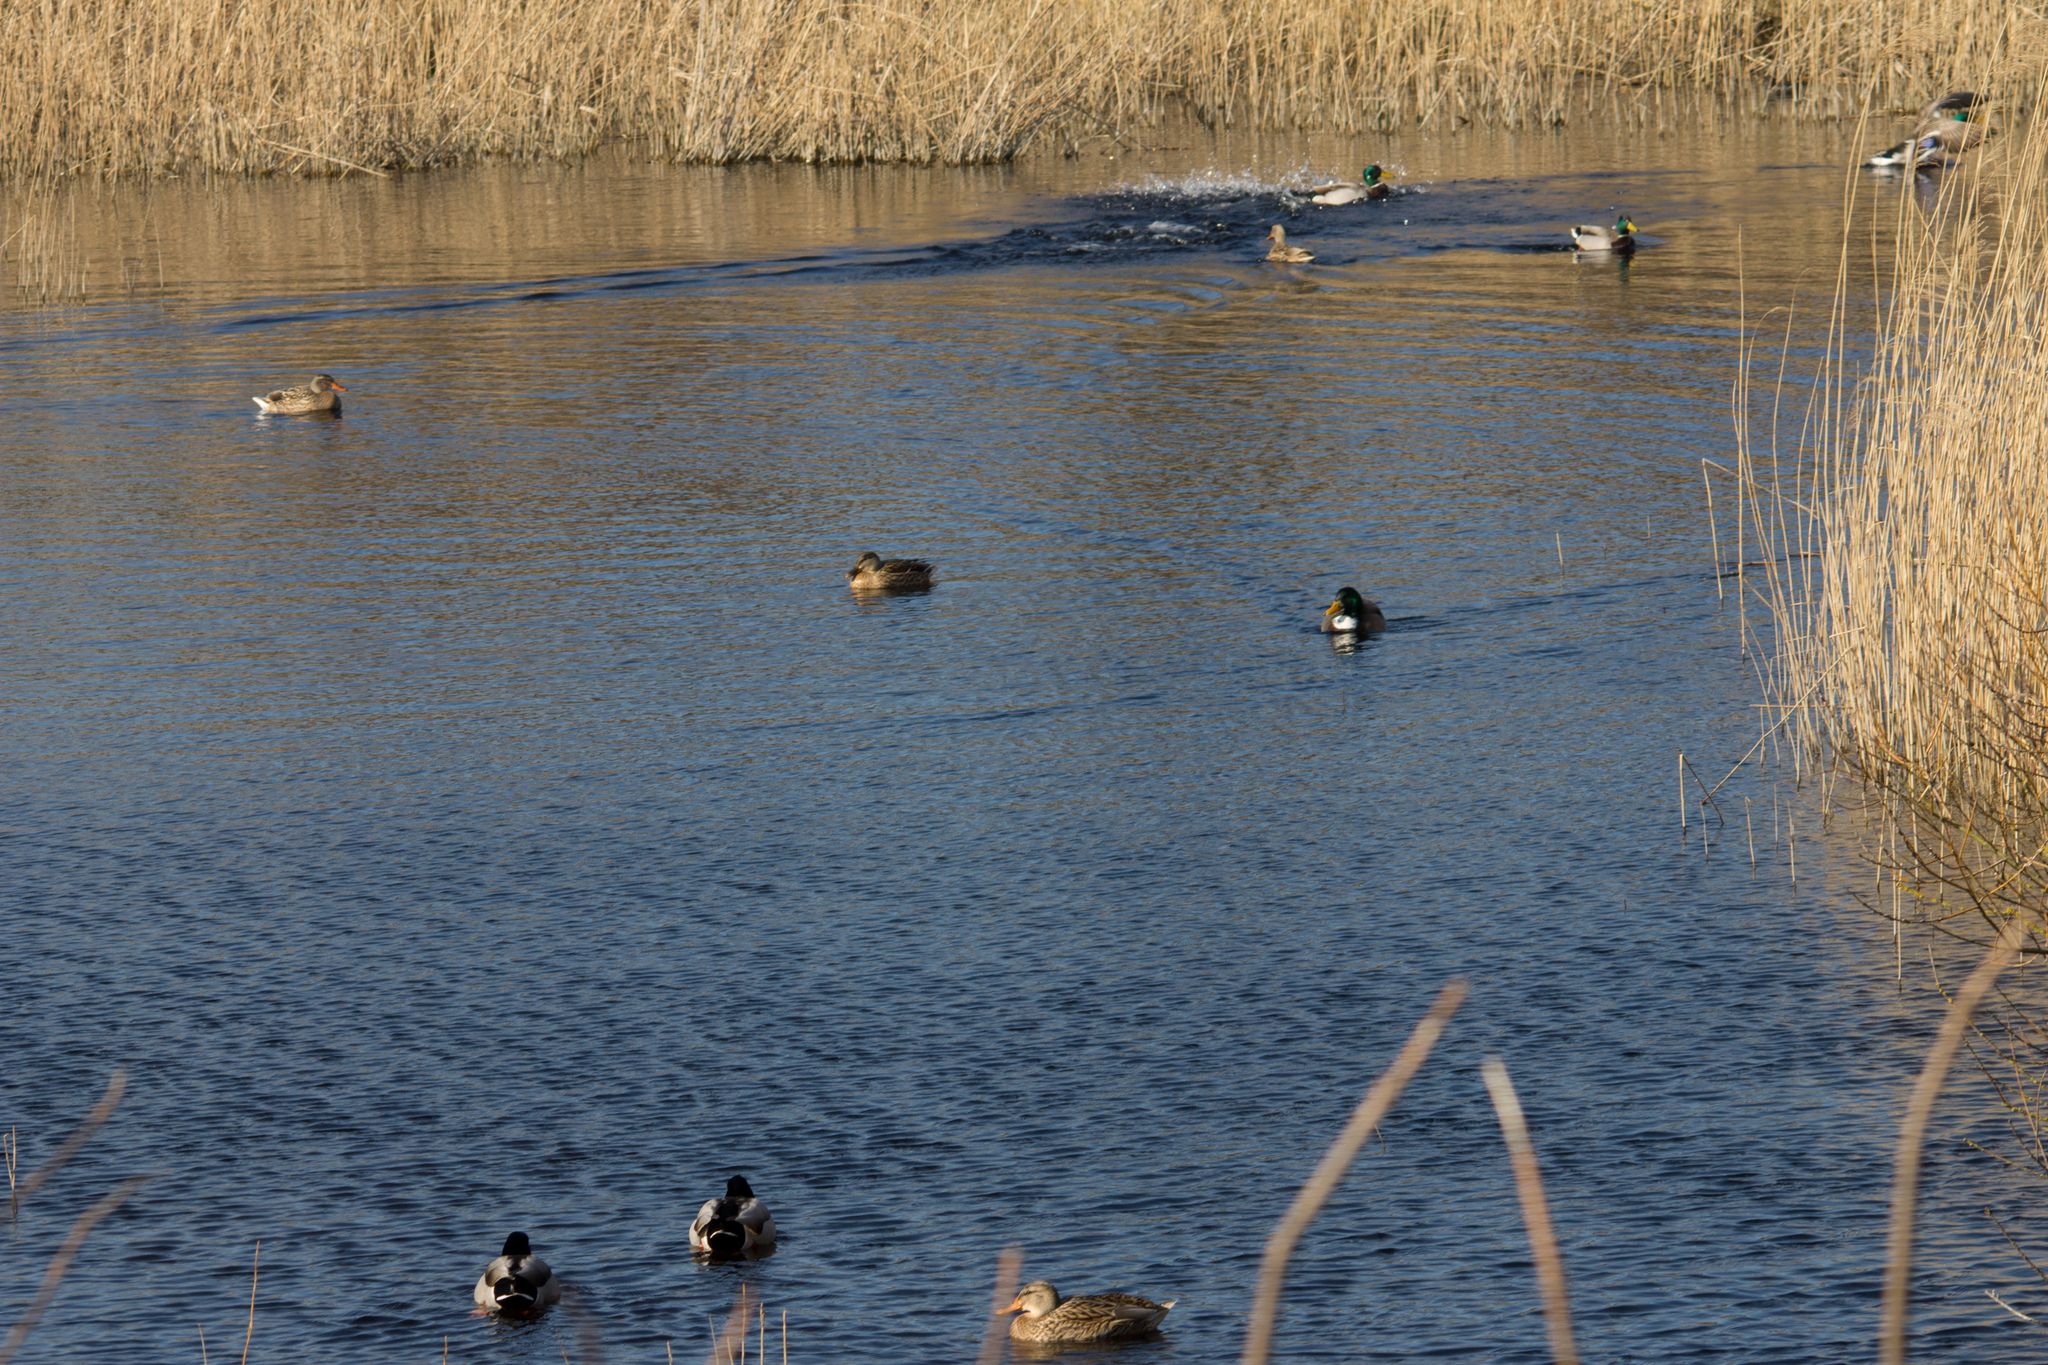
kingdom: Animalia
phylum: Chordata
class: Aves
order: Anseriformes
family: Anatidae
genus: Anas
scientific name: Anas platyrhynchos
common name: Mallard
